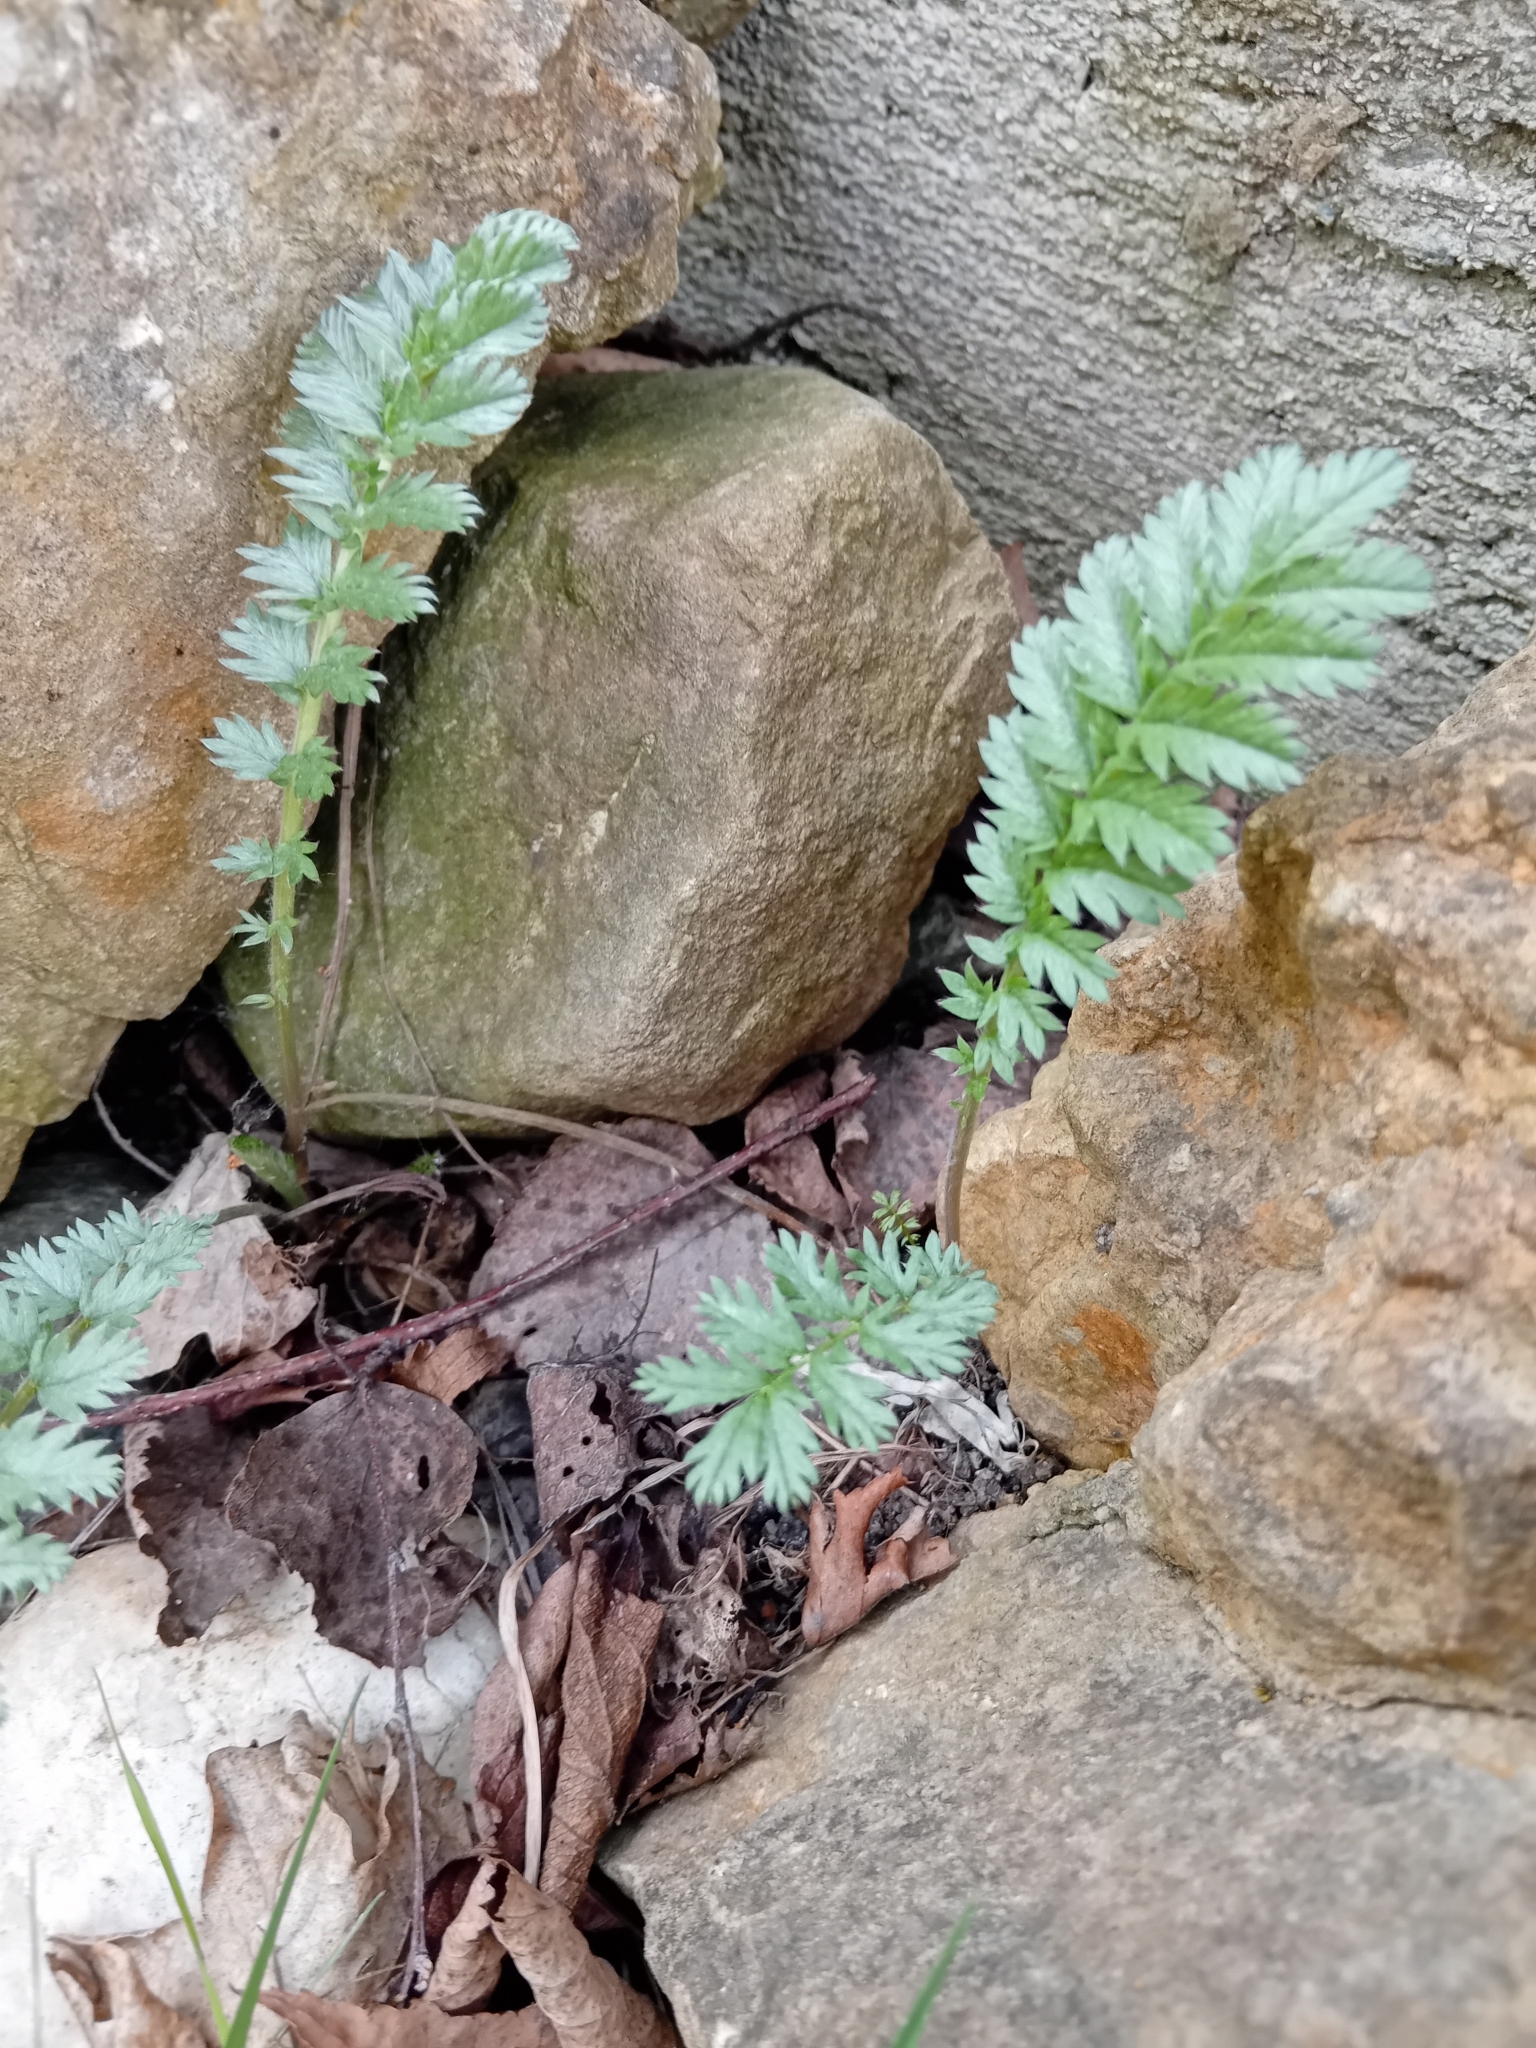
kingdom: Plantae
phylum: Tracheophyta
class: Magnoliopsida
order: Rosales
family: Rosaceae
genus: Argentina
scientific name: Argentina anserina
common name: Common silverweed
